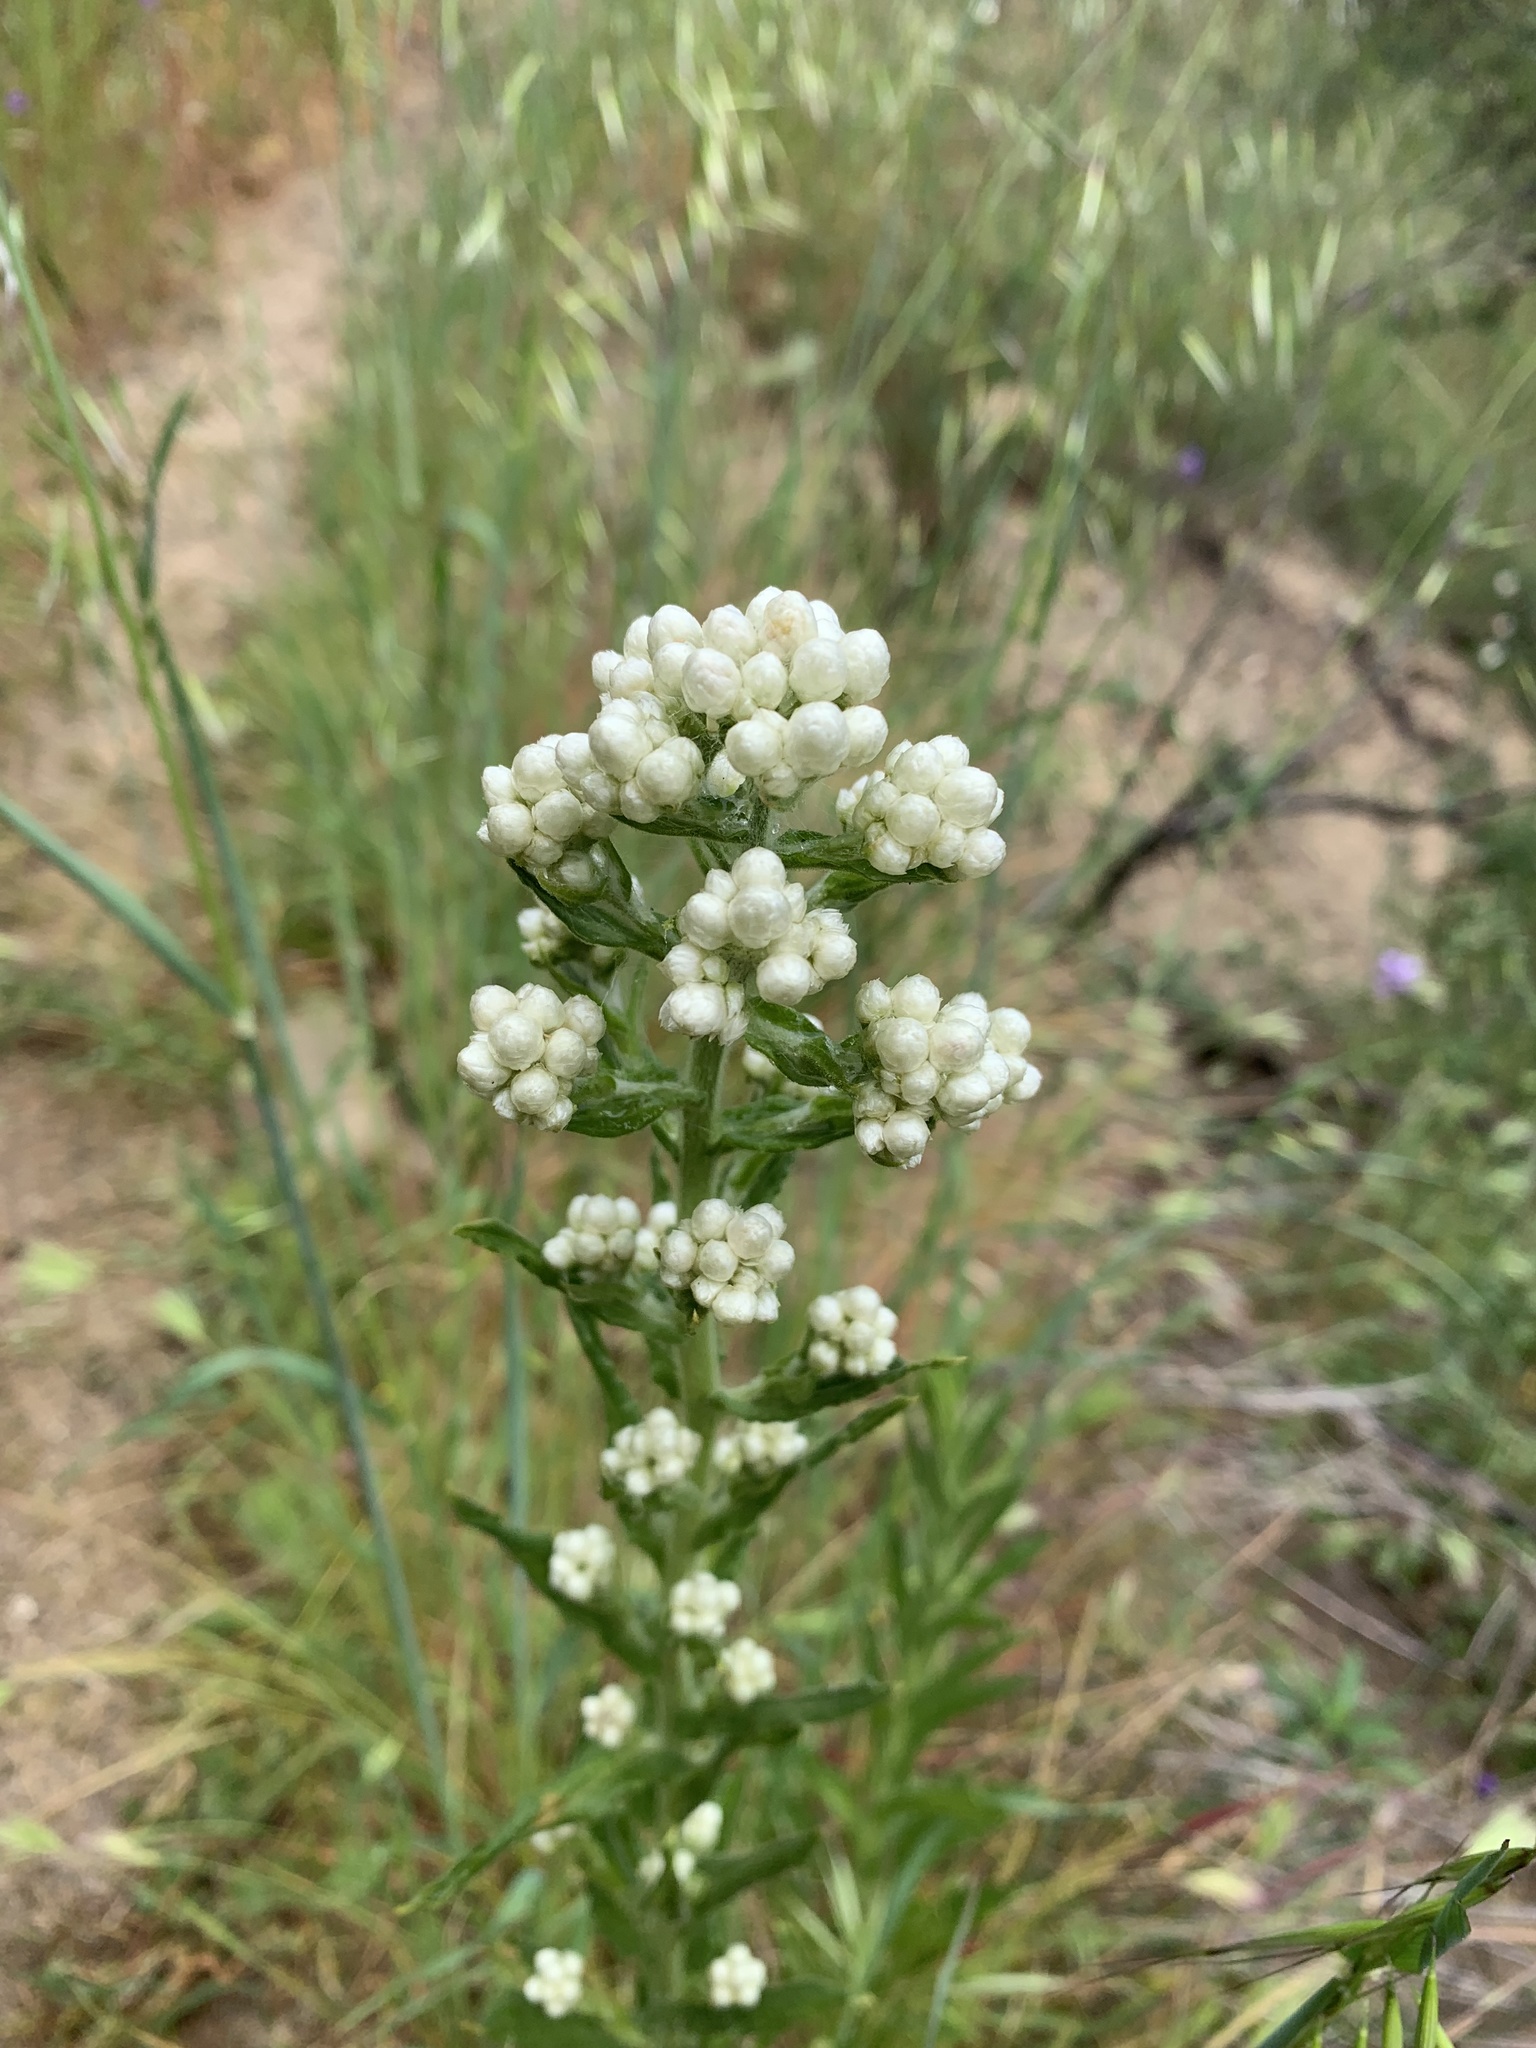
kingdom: Plantae
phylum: Tracheophyta
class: Magnoliopsida
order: Asterales
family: Asteraceae
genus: Pseudognaphalium
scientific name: Pseudognaphalium californicum
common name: California rabbit-tobacco
